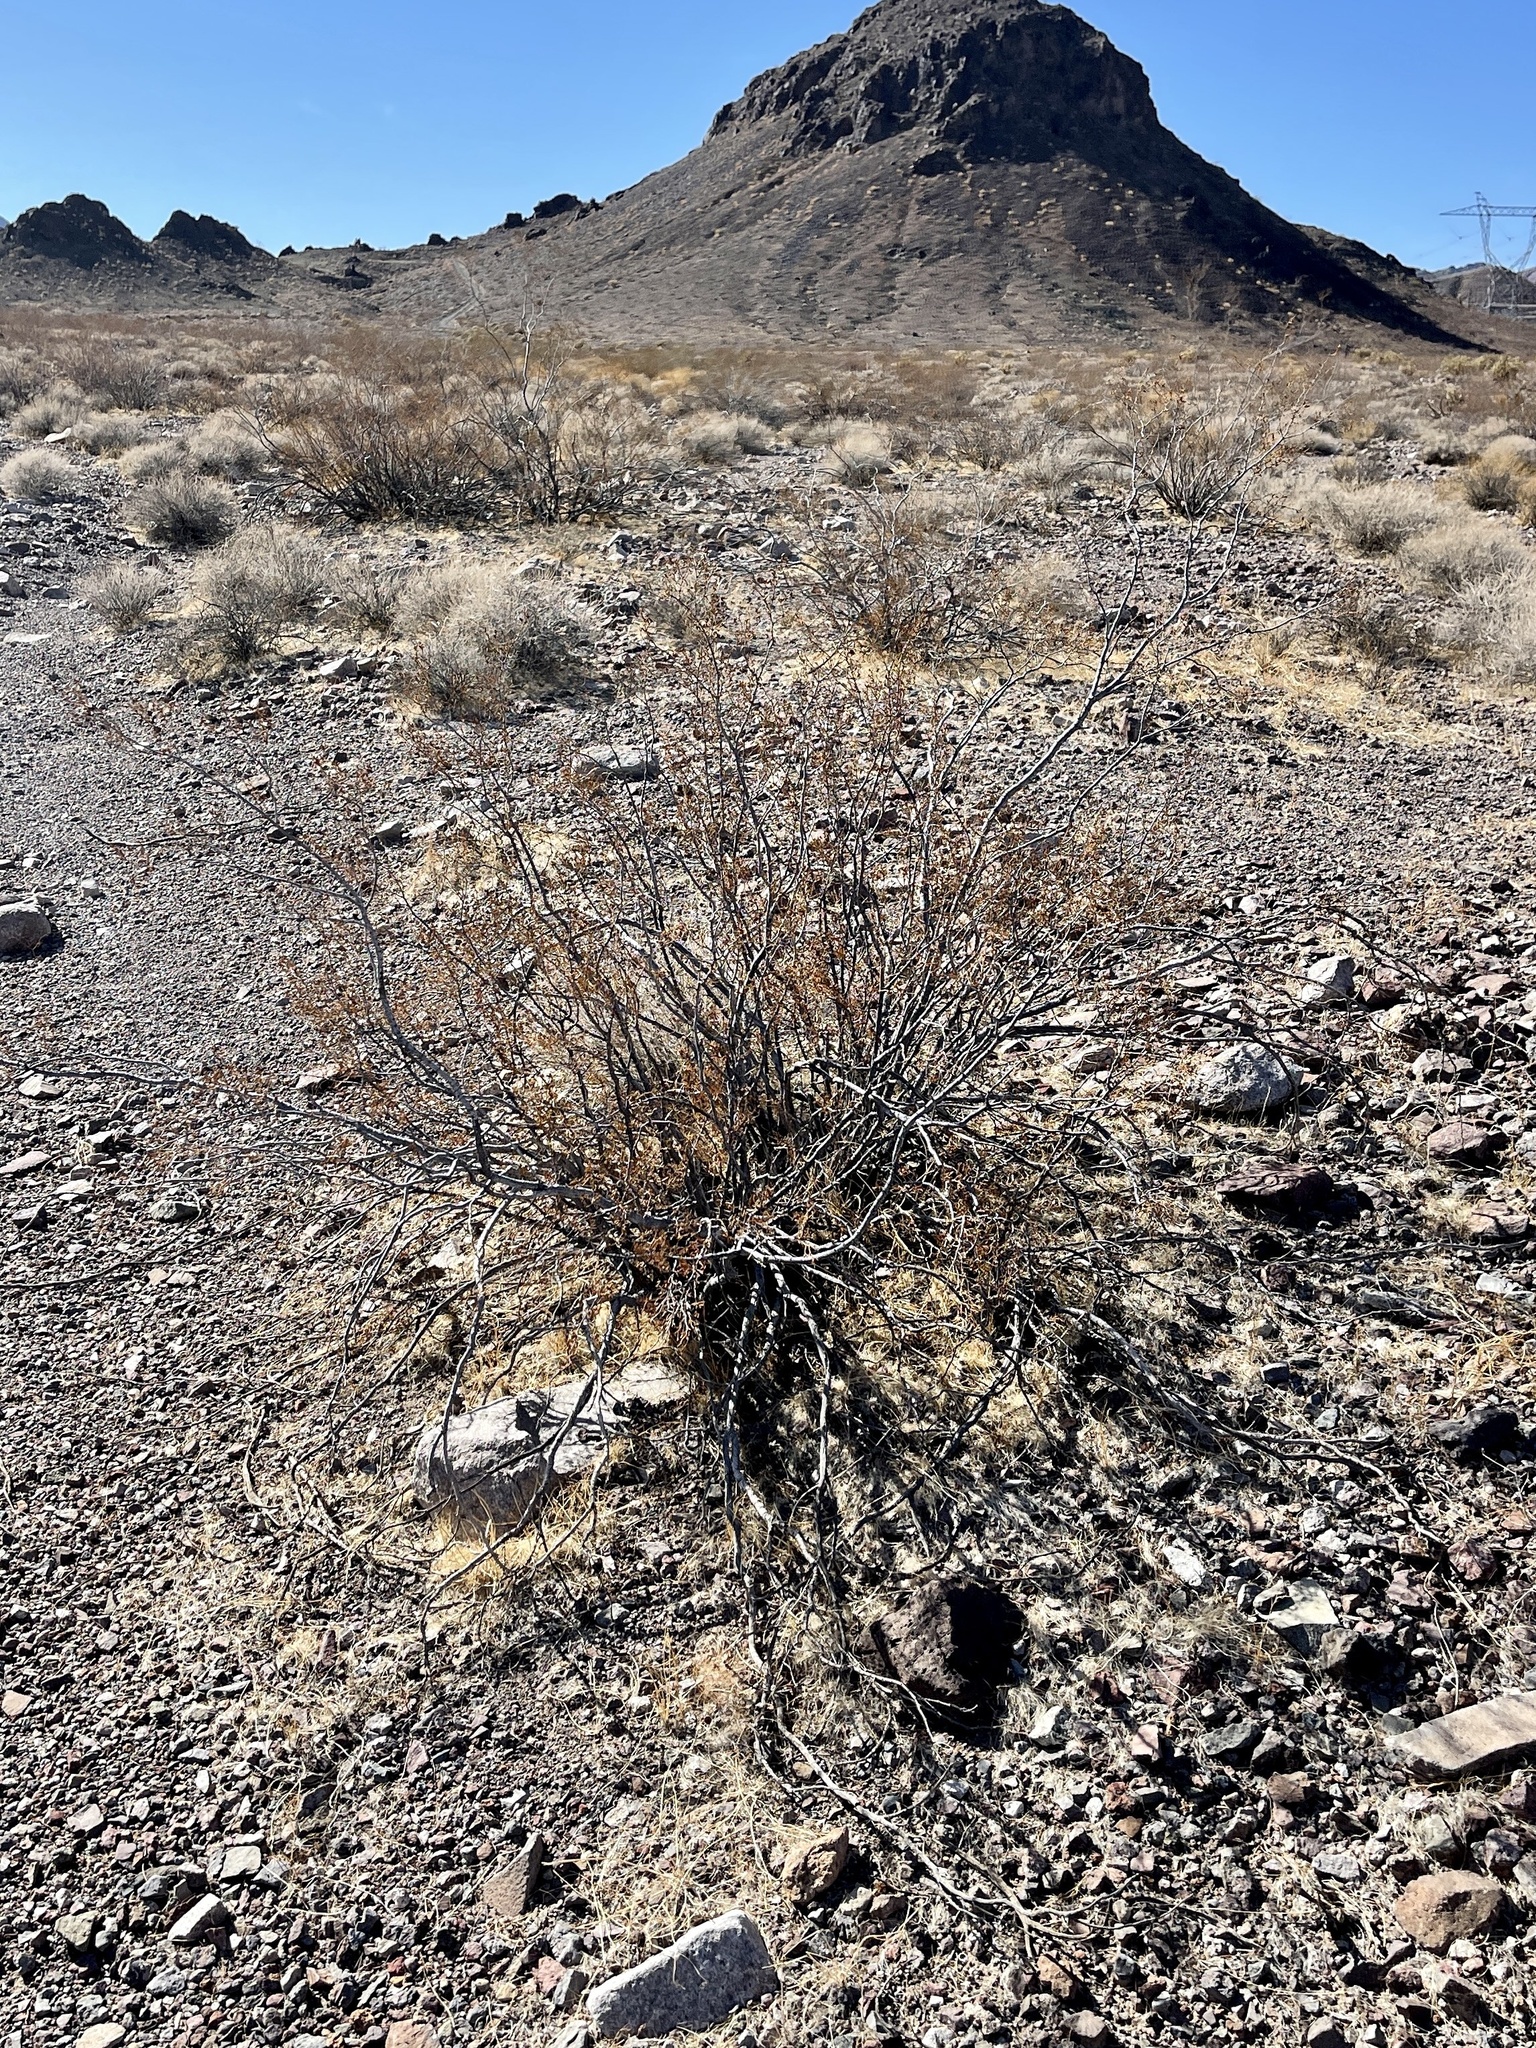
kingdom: Plantae
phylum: Tracheophyta
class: Magnoliopsida
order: Zygophyllales
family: Zygophyllaceae
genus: Larrea
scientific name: Larrea tridentata
